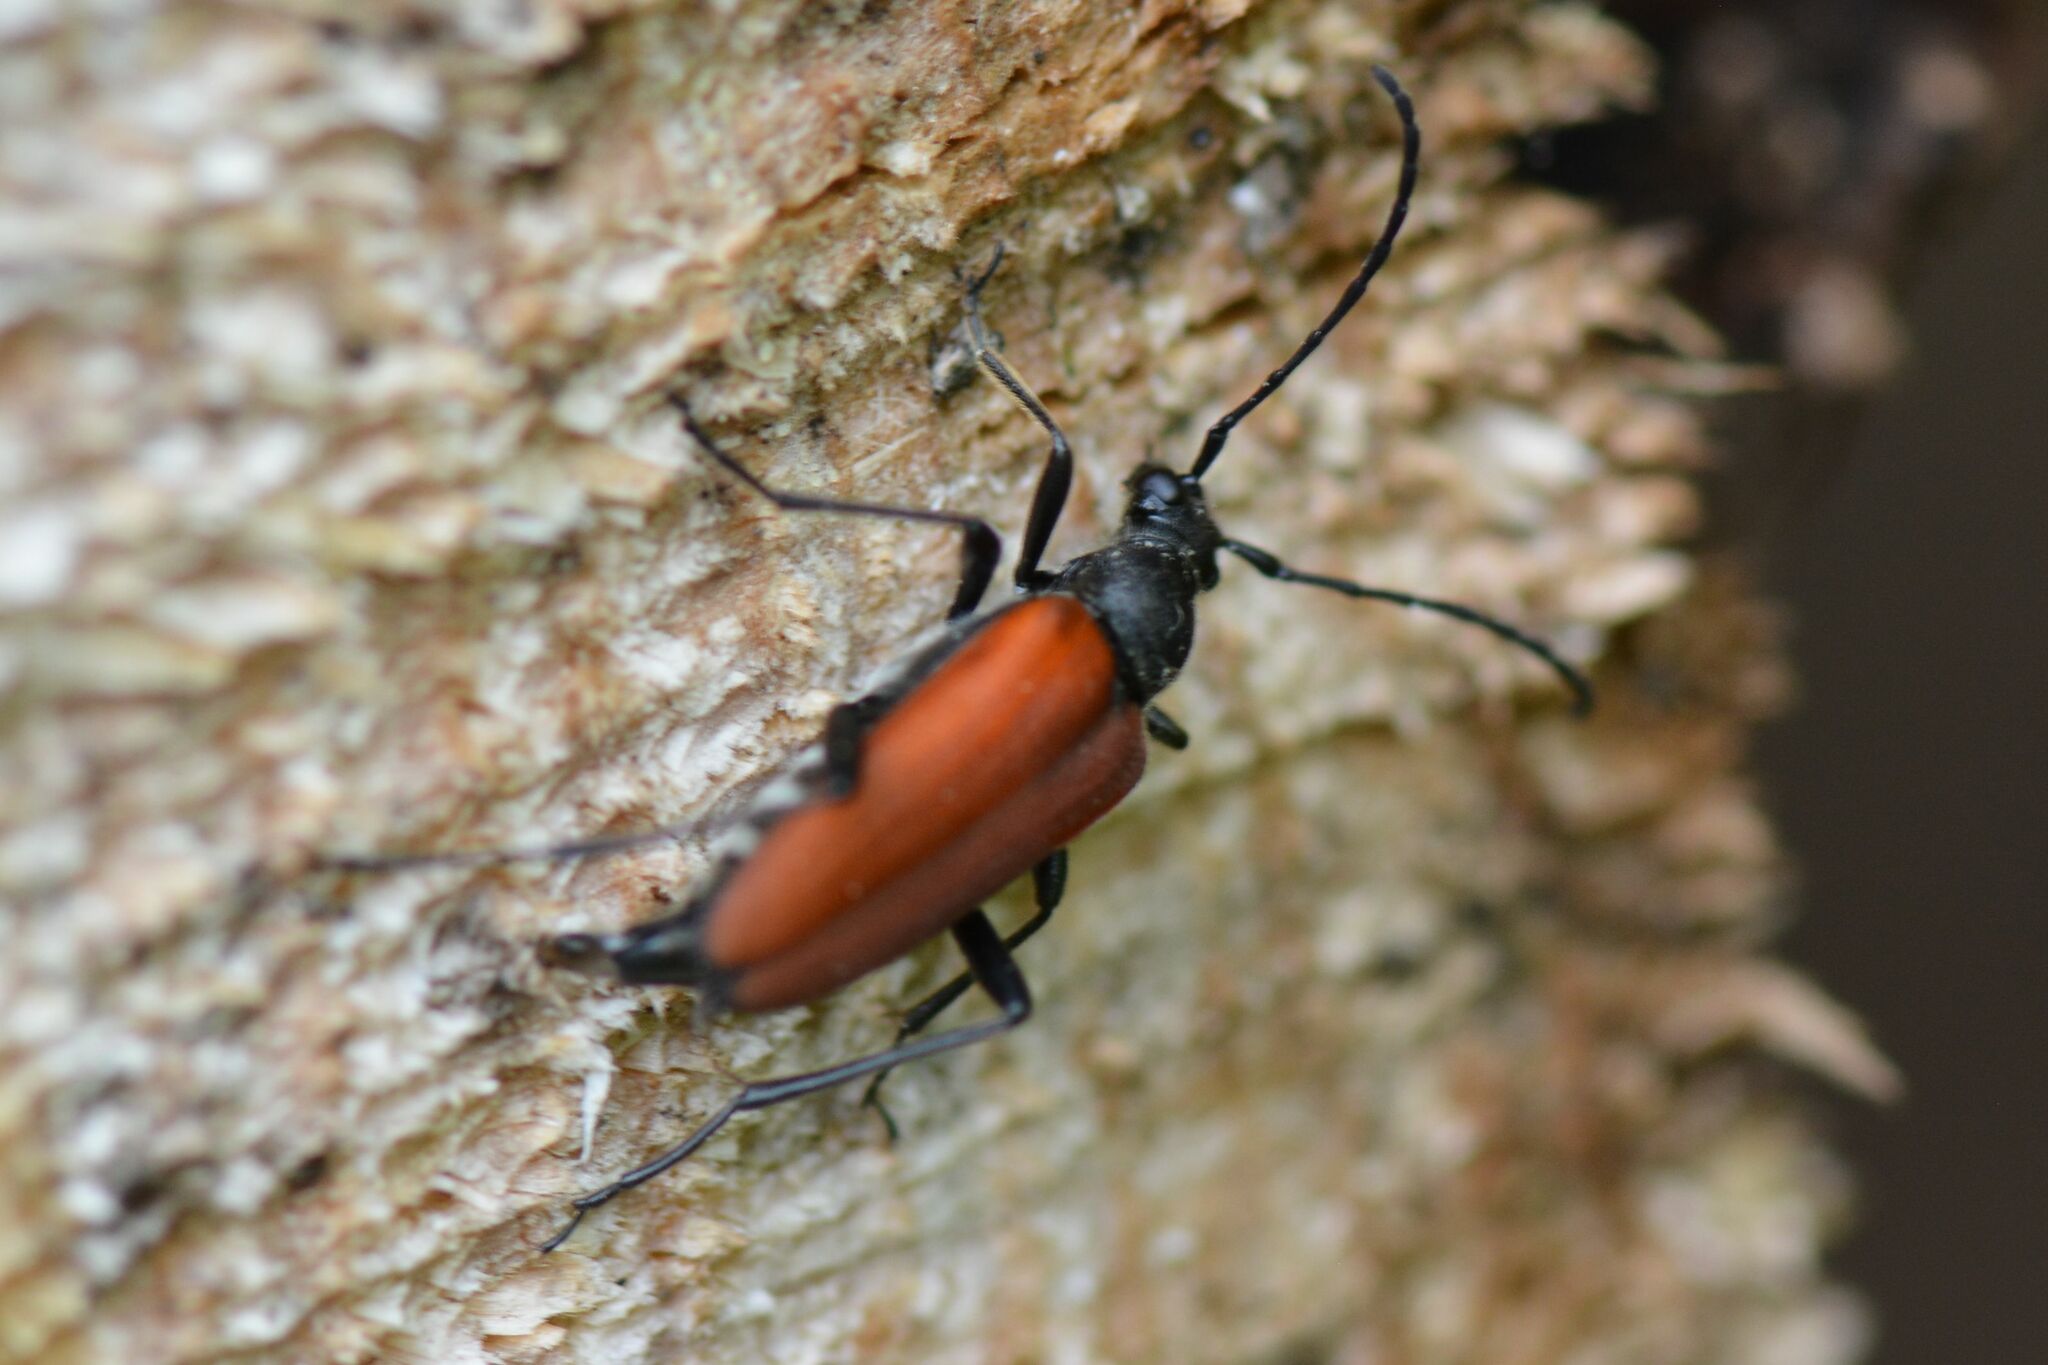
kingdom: Animalia
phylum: Arthropoda
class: Insecta
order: Coleoptera
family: Cerambycidae
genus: Anastrangalia
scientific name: Anastrangalia sanguinolenta
